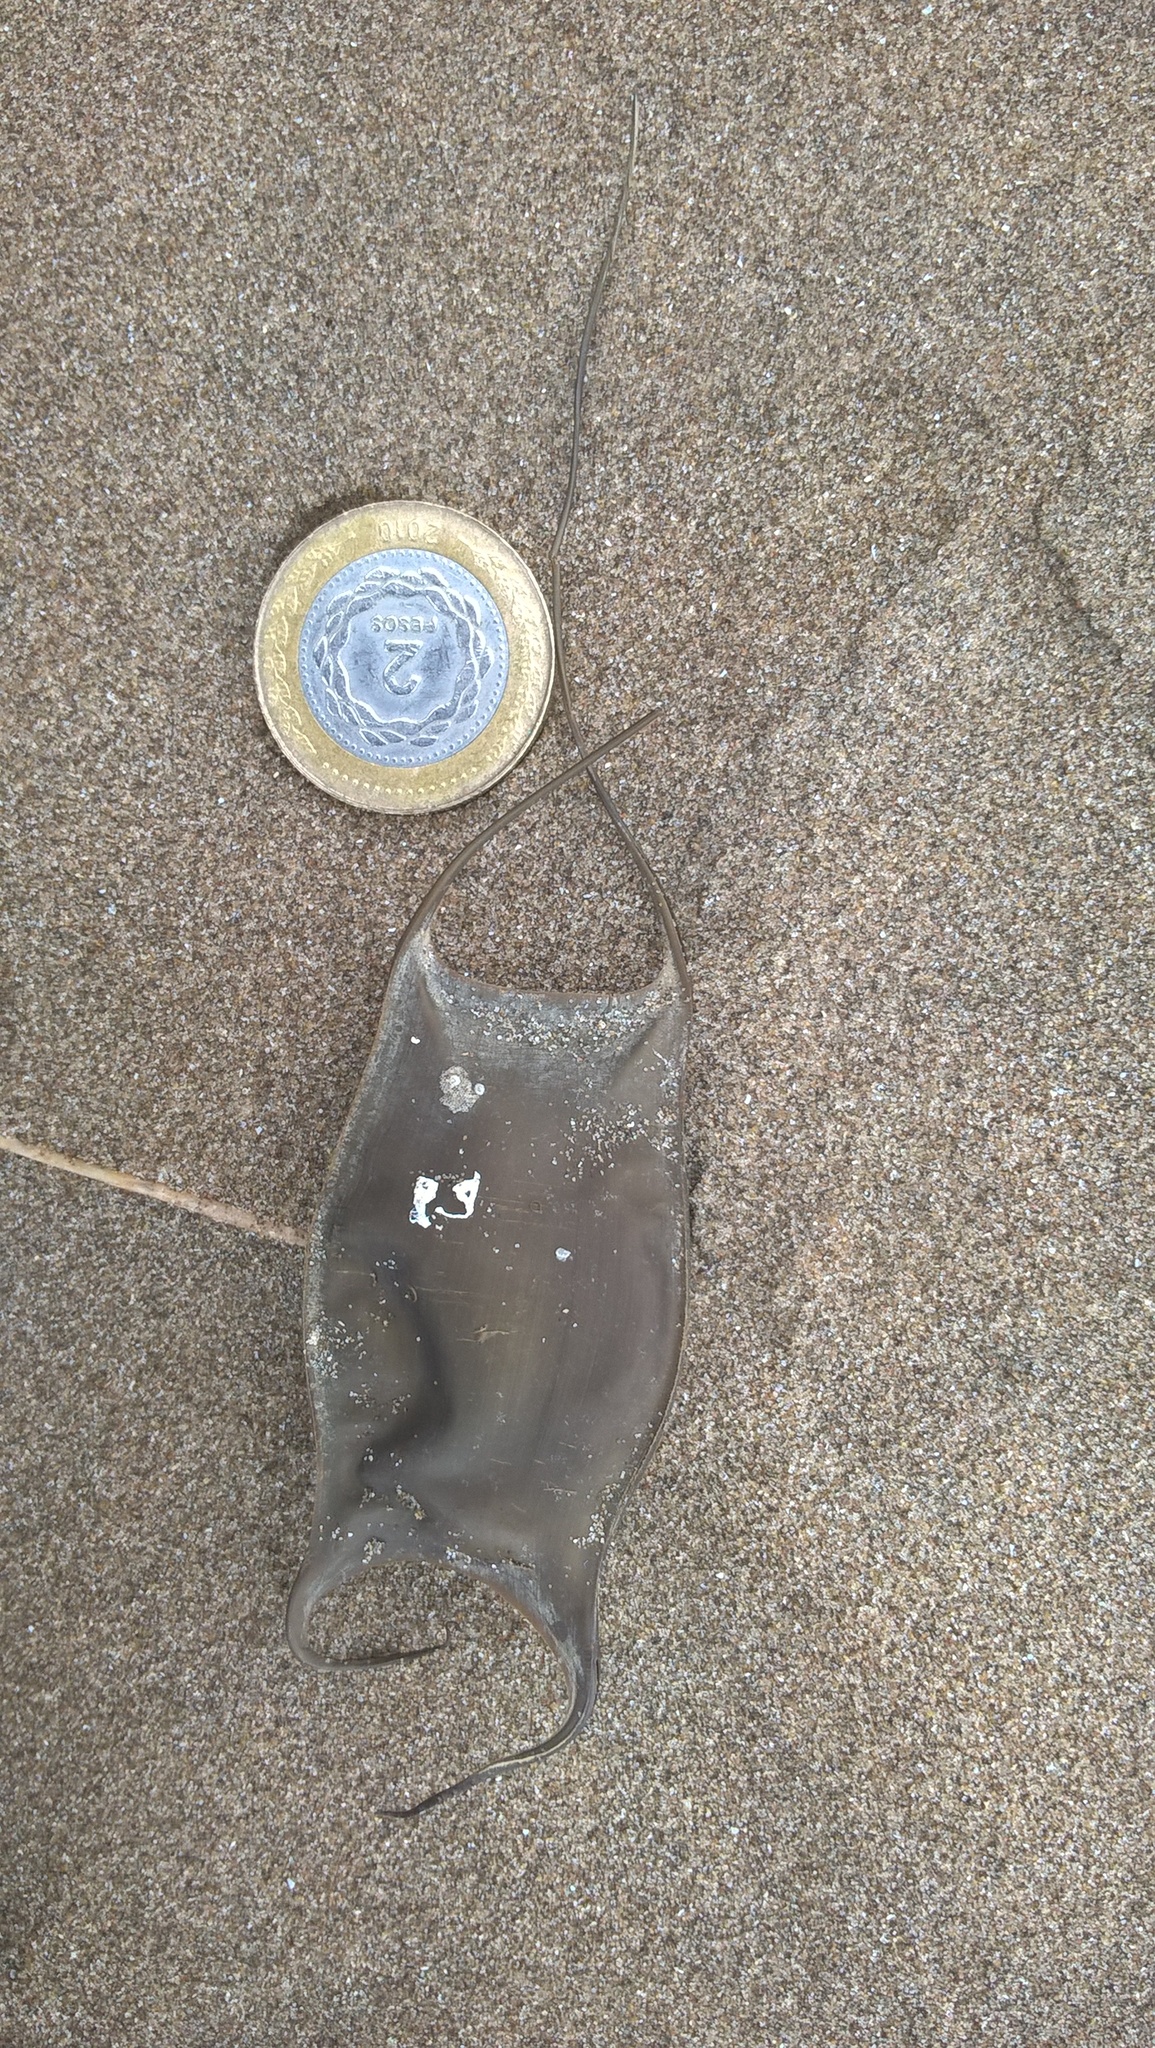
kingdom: Animalia
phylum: Chordata
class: Elasmobranchii
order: Rajiformes
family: Arhynchobatidae
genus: Sympterygia
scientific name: Sympterygia acuta
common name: Bignose fanskate
